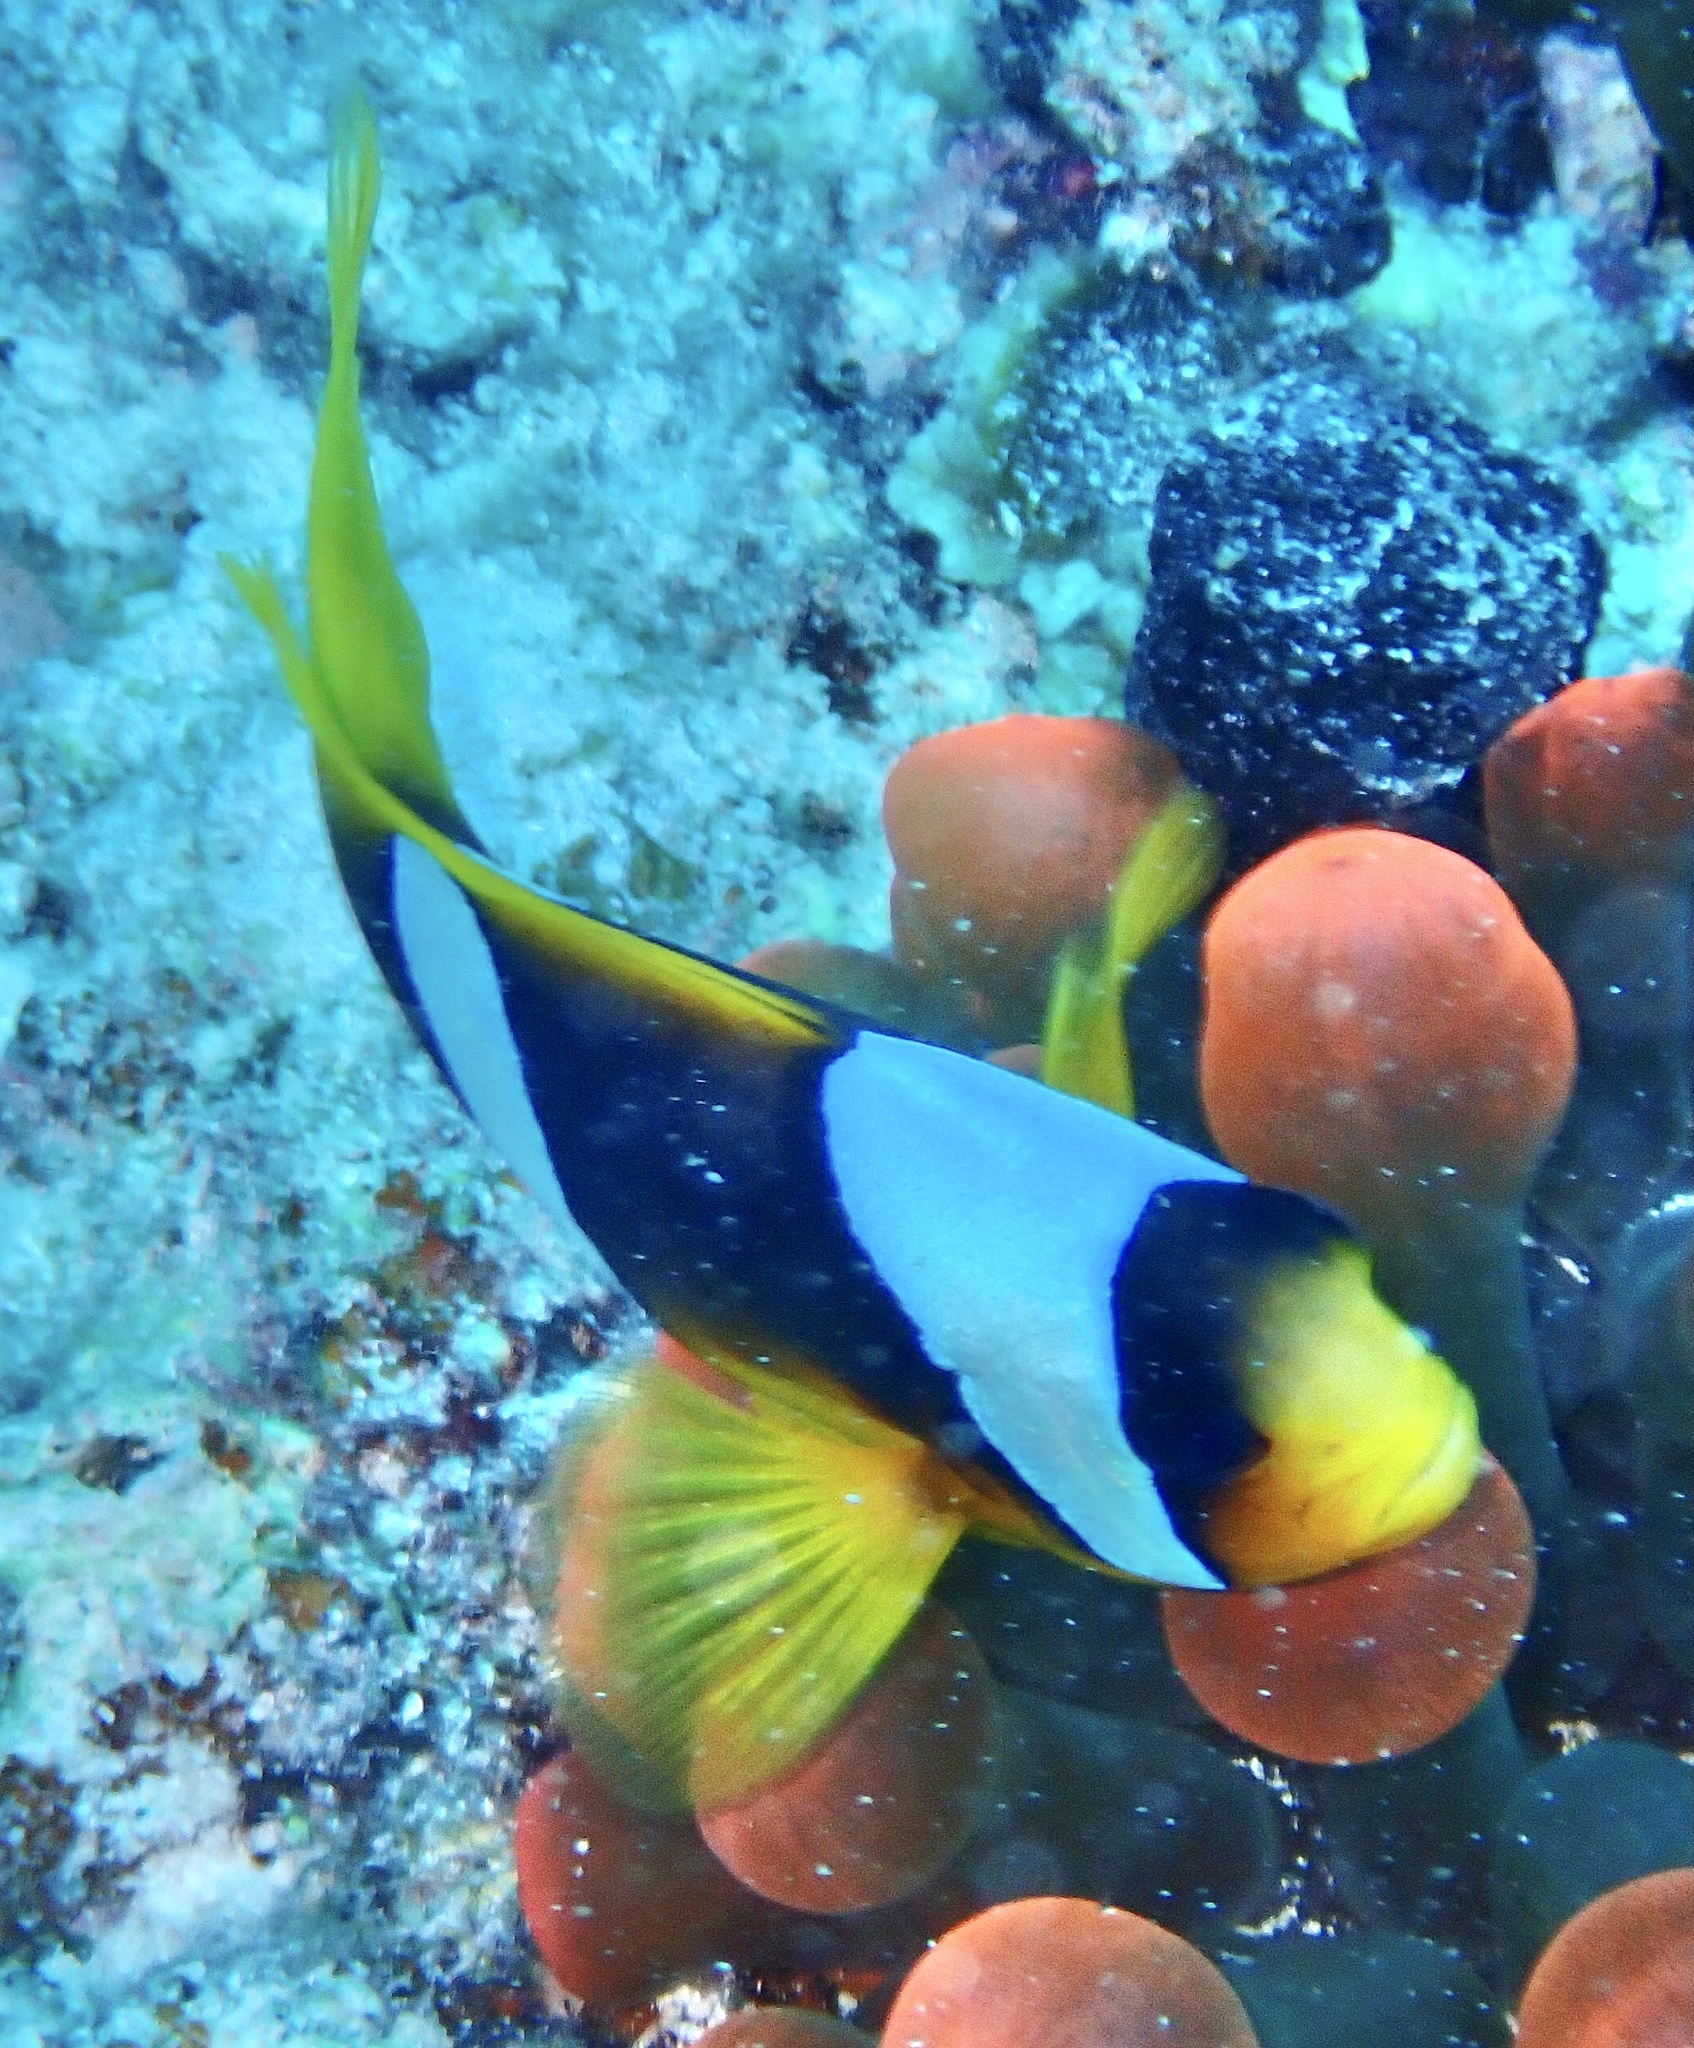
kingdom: Animalia
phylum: Chordata
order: Perciformes
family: Pomacentridae
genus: Amphiprion
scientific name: Amphiprion bicinctus
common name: Two-banded anemonefish
